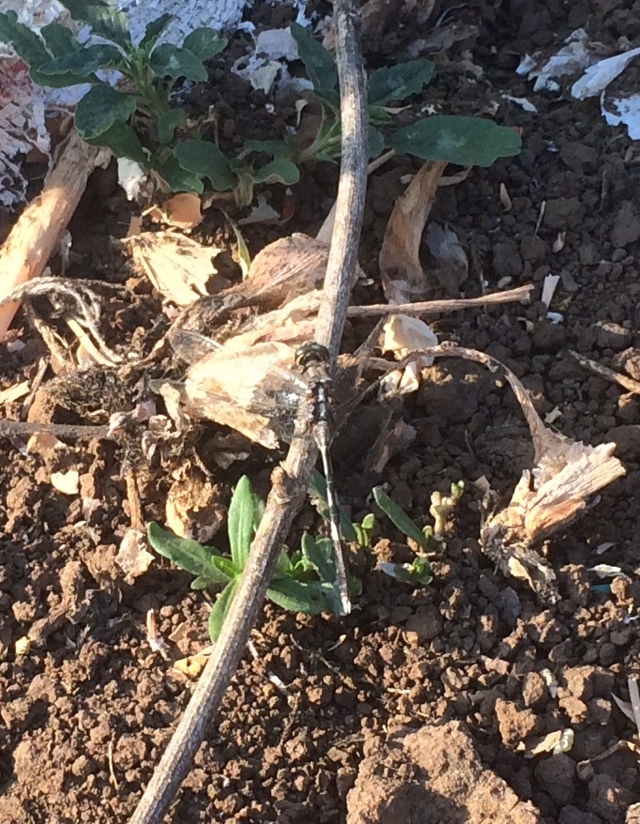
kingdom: Animalia
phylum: Arthropoda
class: Insecta
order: Odonata
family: Libellulidae
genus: Orthetrum
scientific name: Orthetrum sabina
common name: Slender skimmer
